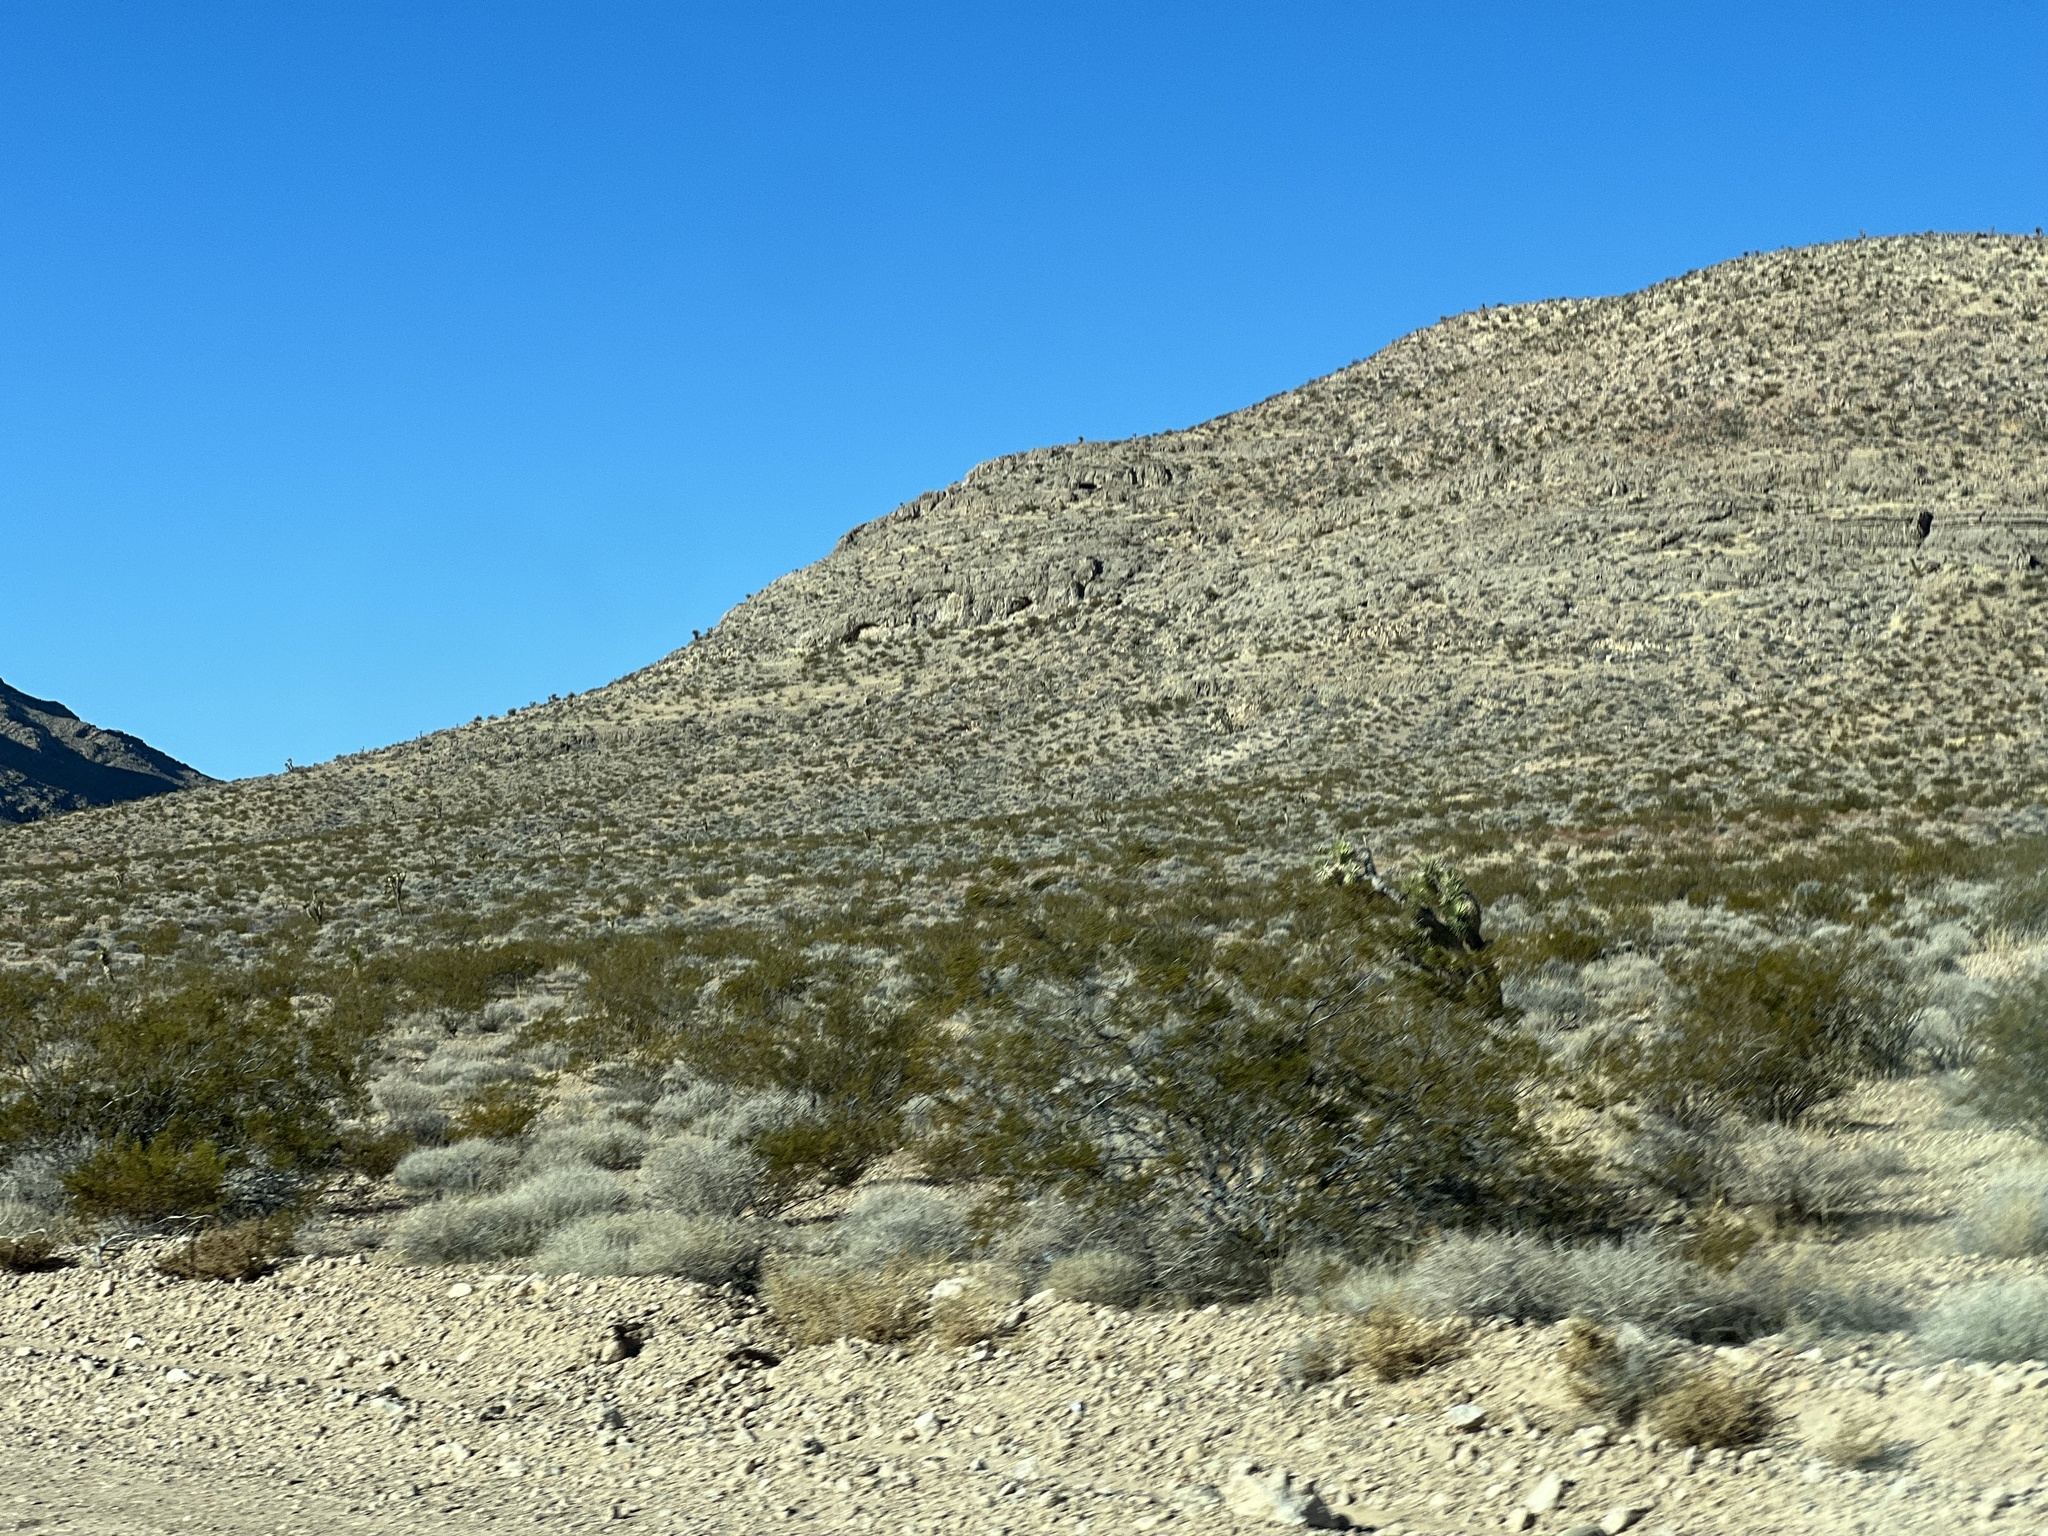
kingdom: Plantae
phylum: Tracheophyta
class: Magnoliopsida
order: Zygophyllales
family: Zygophyllaceae
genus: Larrea
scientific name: Larrea tridentata
